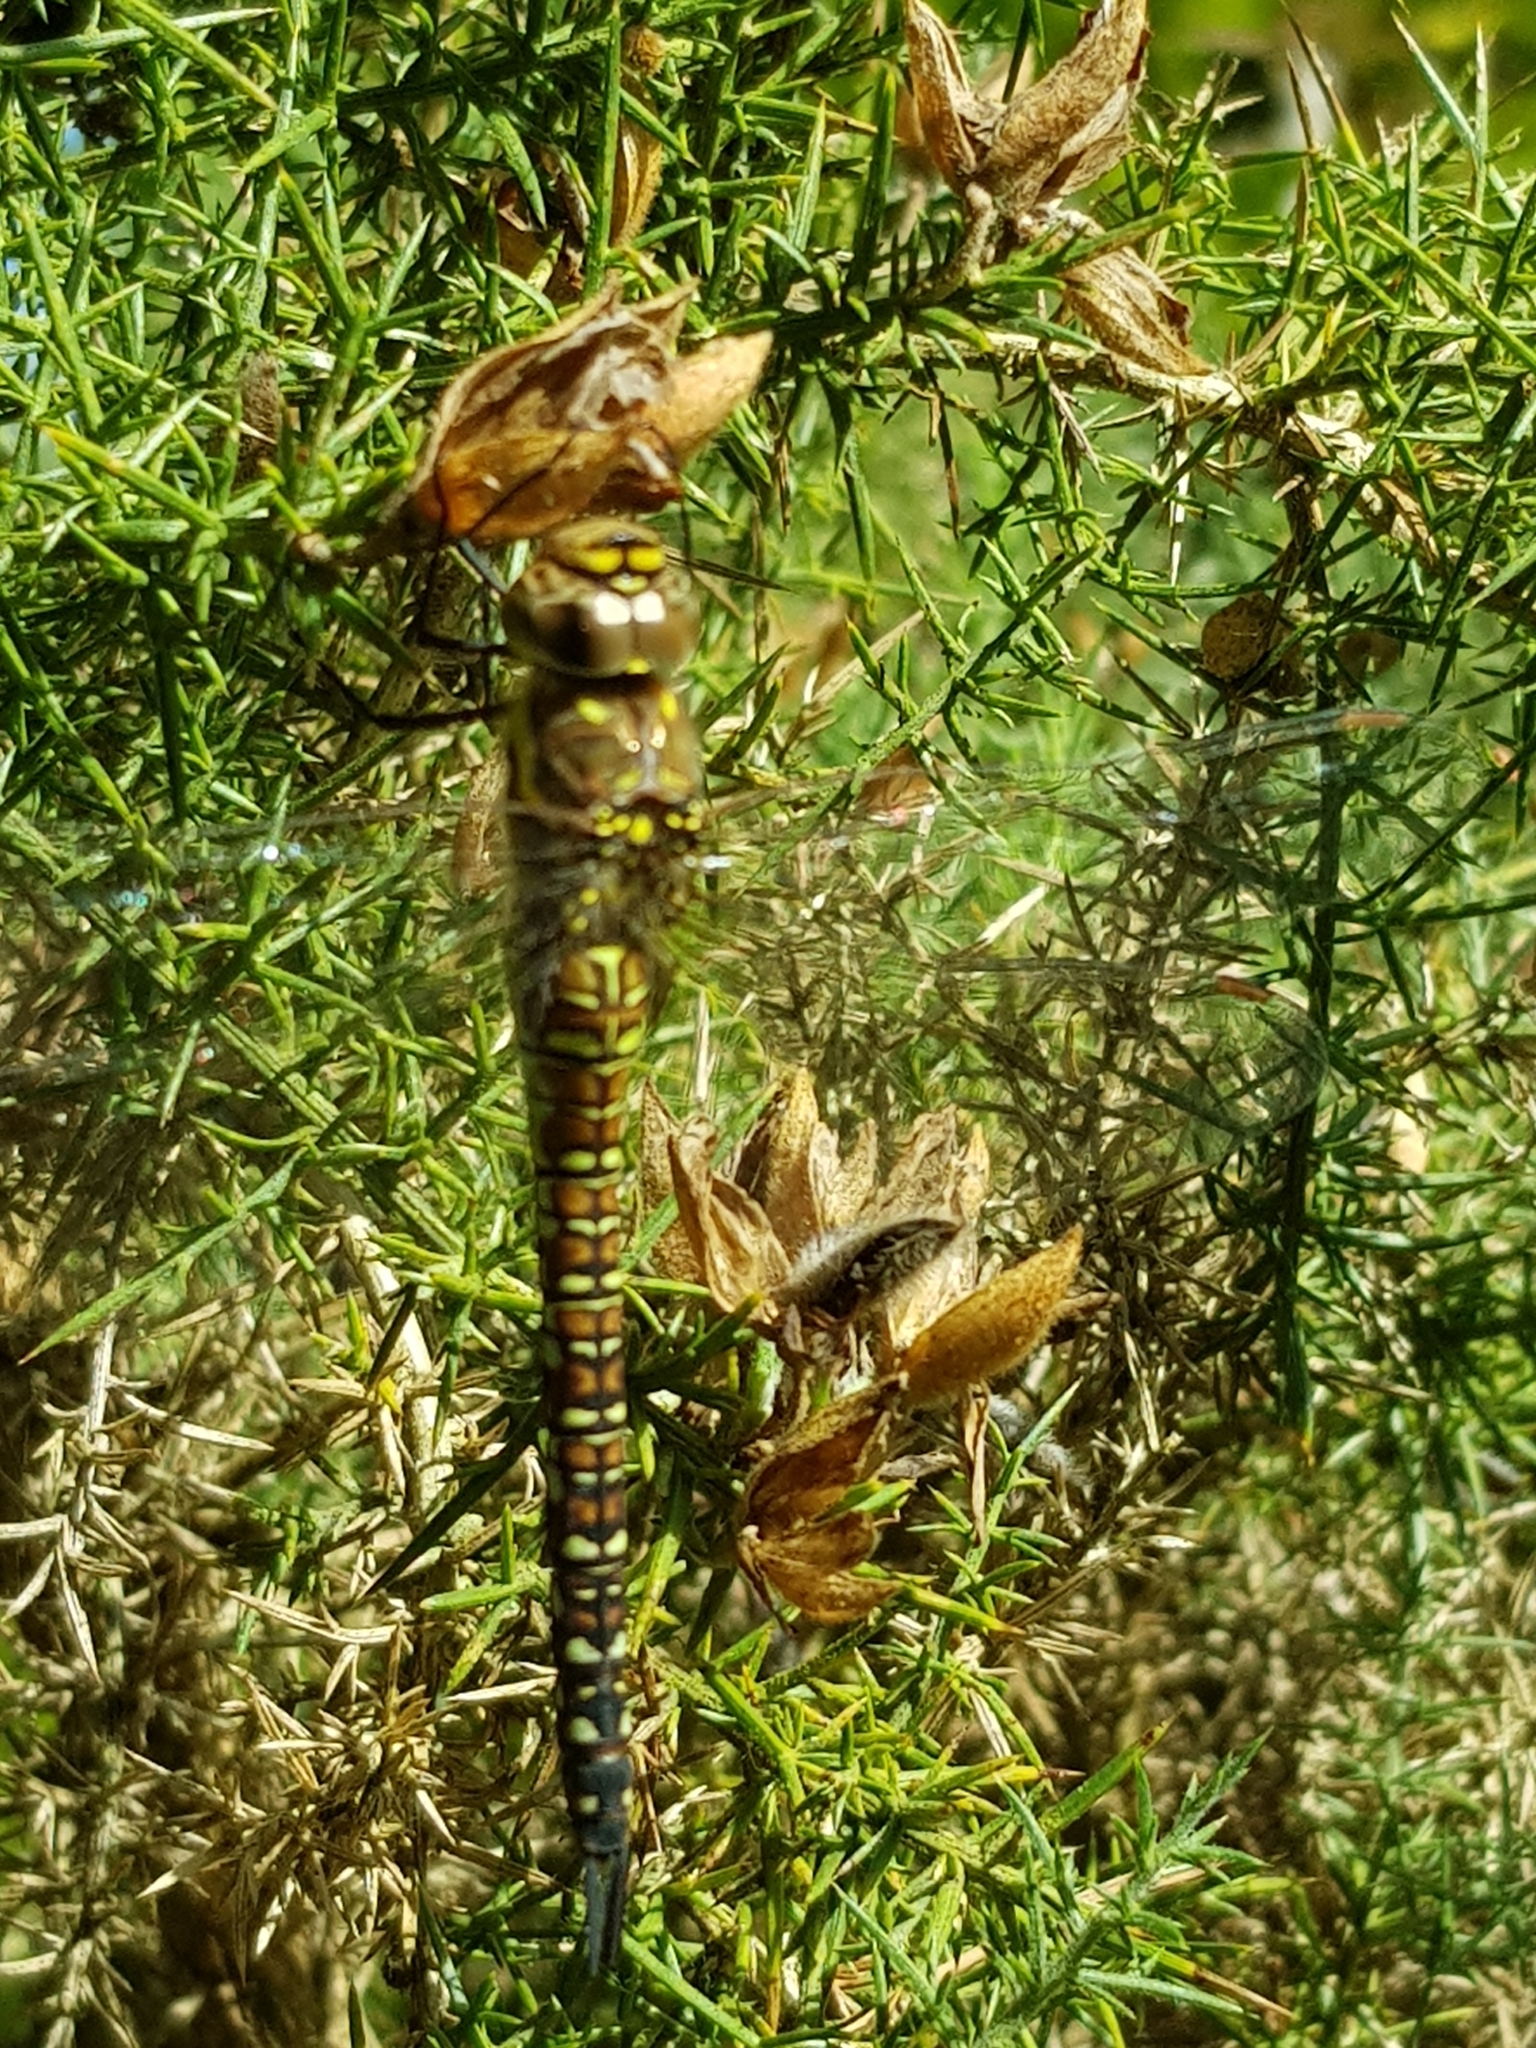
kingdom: Animalia
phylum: Arthropoda
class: Insecta
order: Odonata
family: Aeshnidae
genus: Aeshna
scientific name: Aeshna mixta
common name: Migrant hawker
